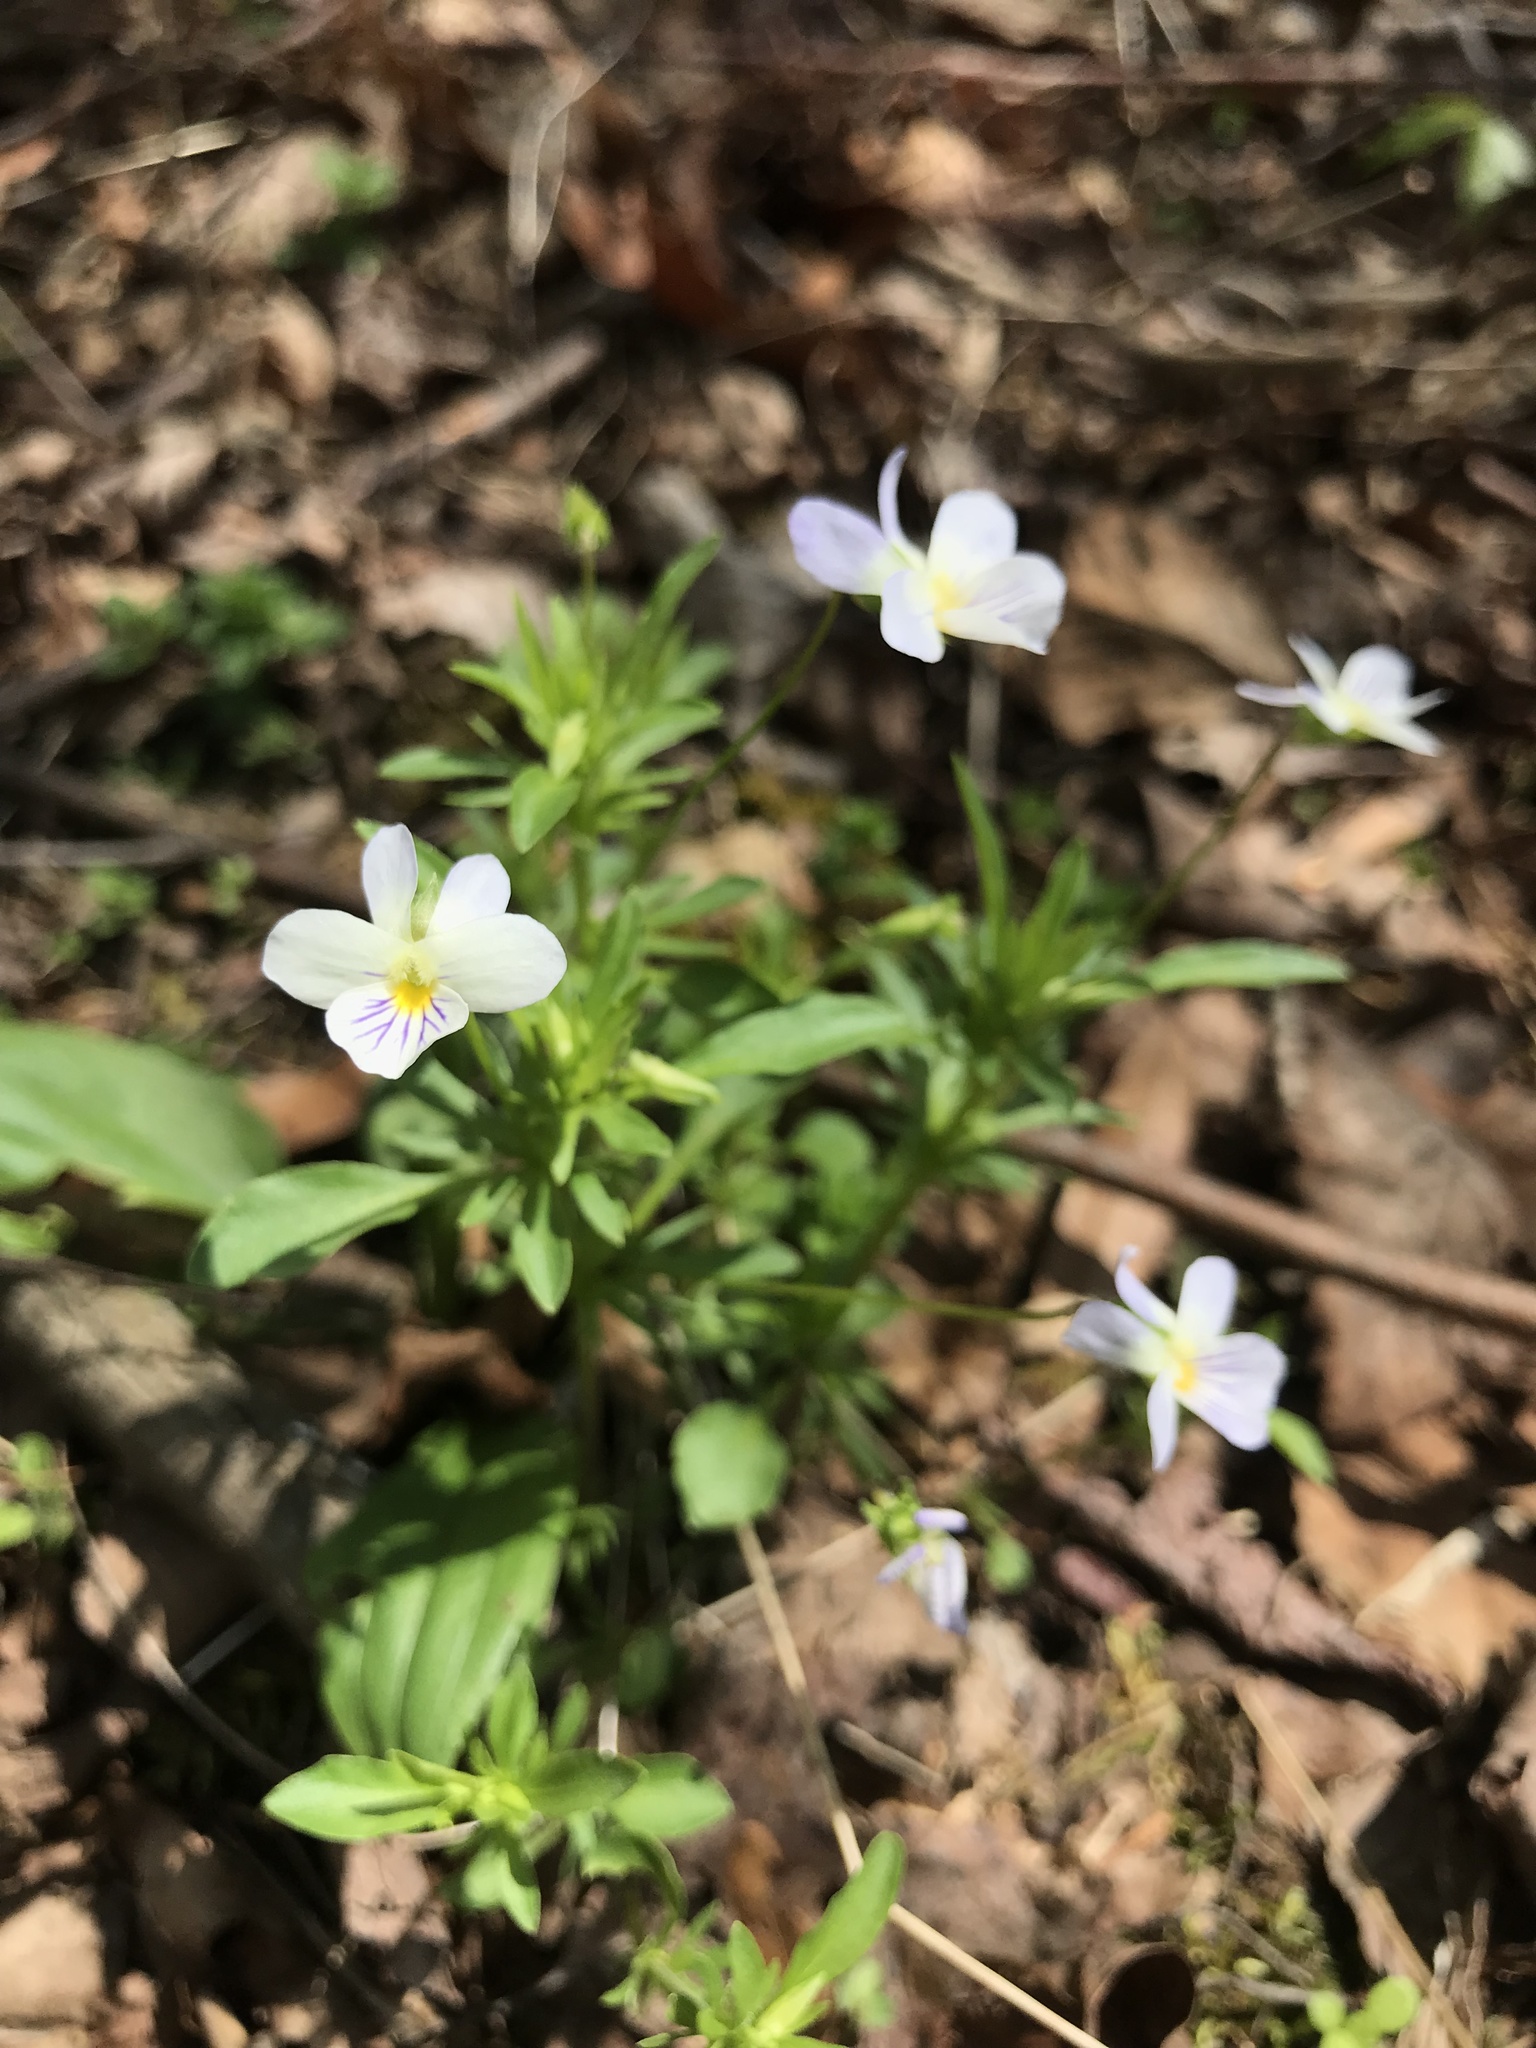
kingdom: Plantae
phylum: Tracheophyta
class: Magnoliopsida
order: Malpighiales
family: Violaceae
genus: Viola
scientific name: Viola rafinesquei
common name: American field pansy
